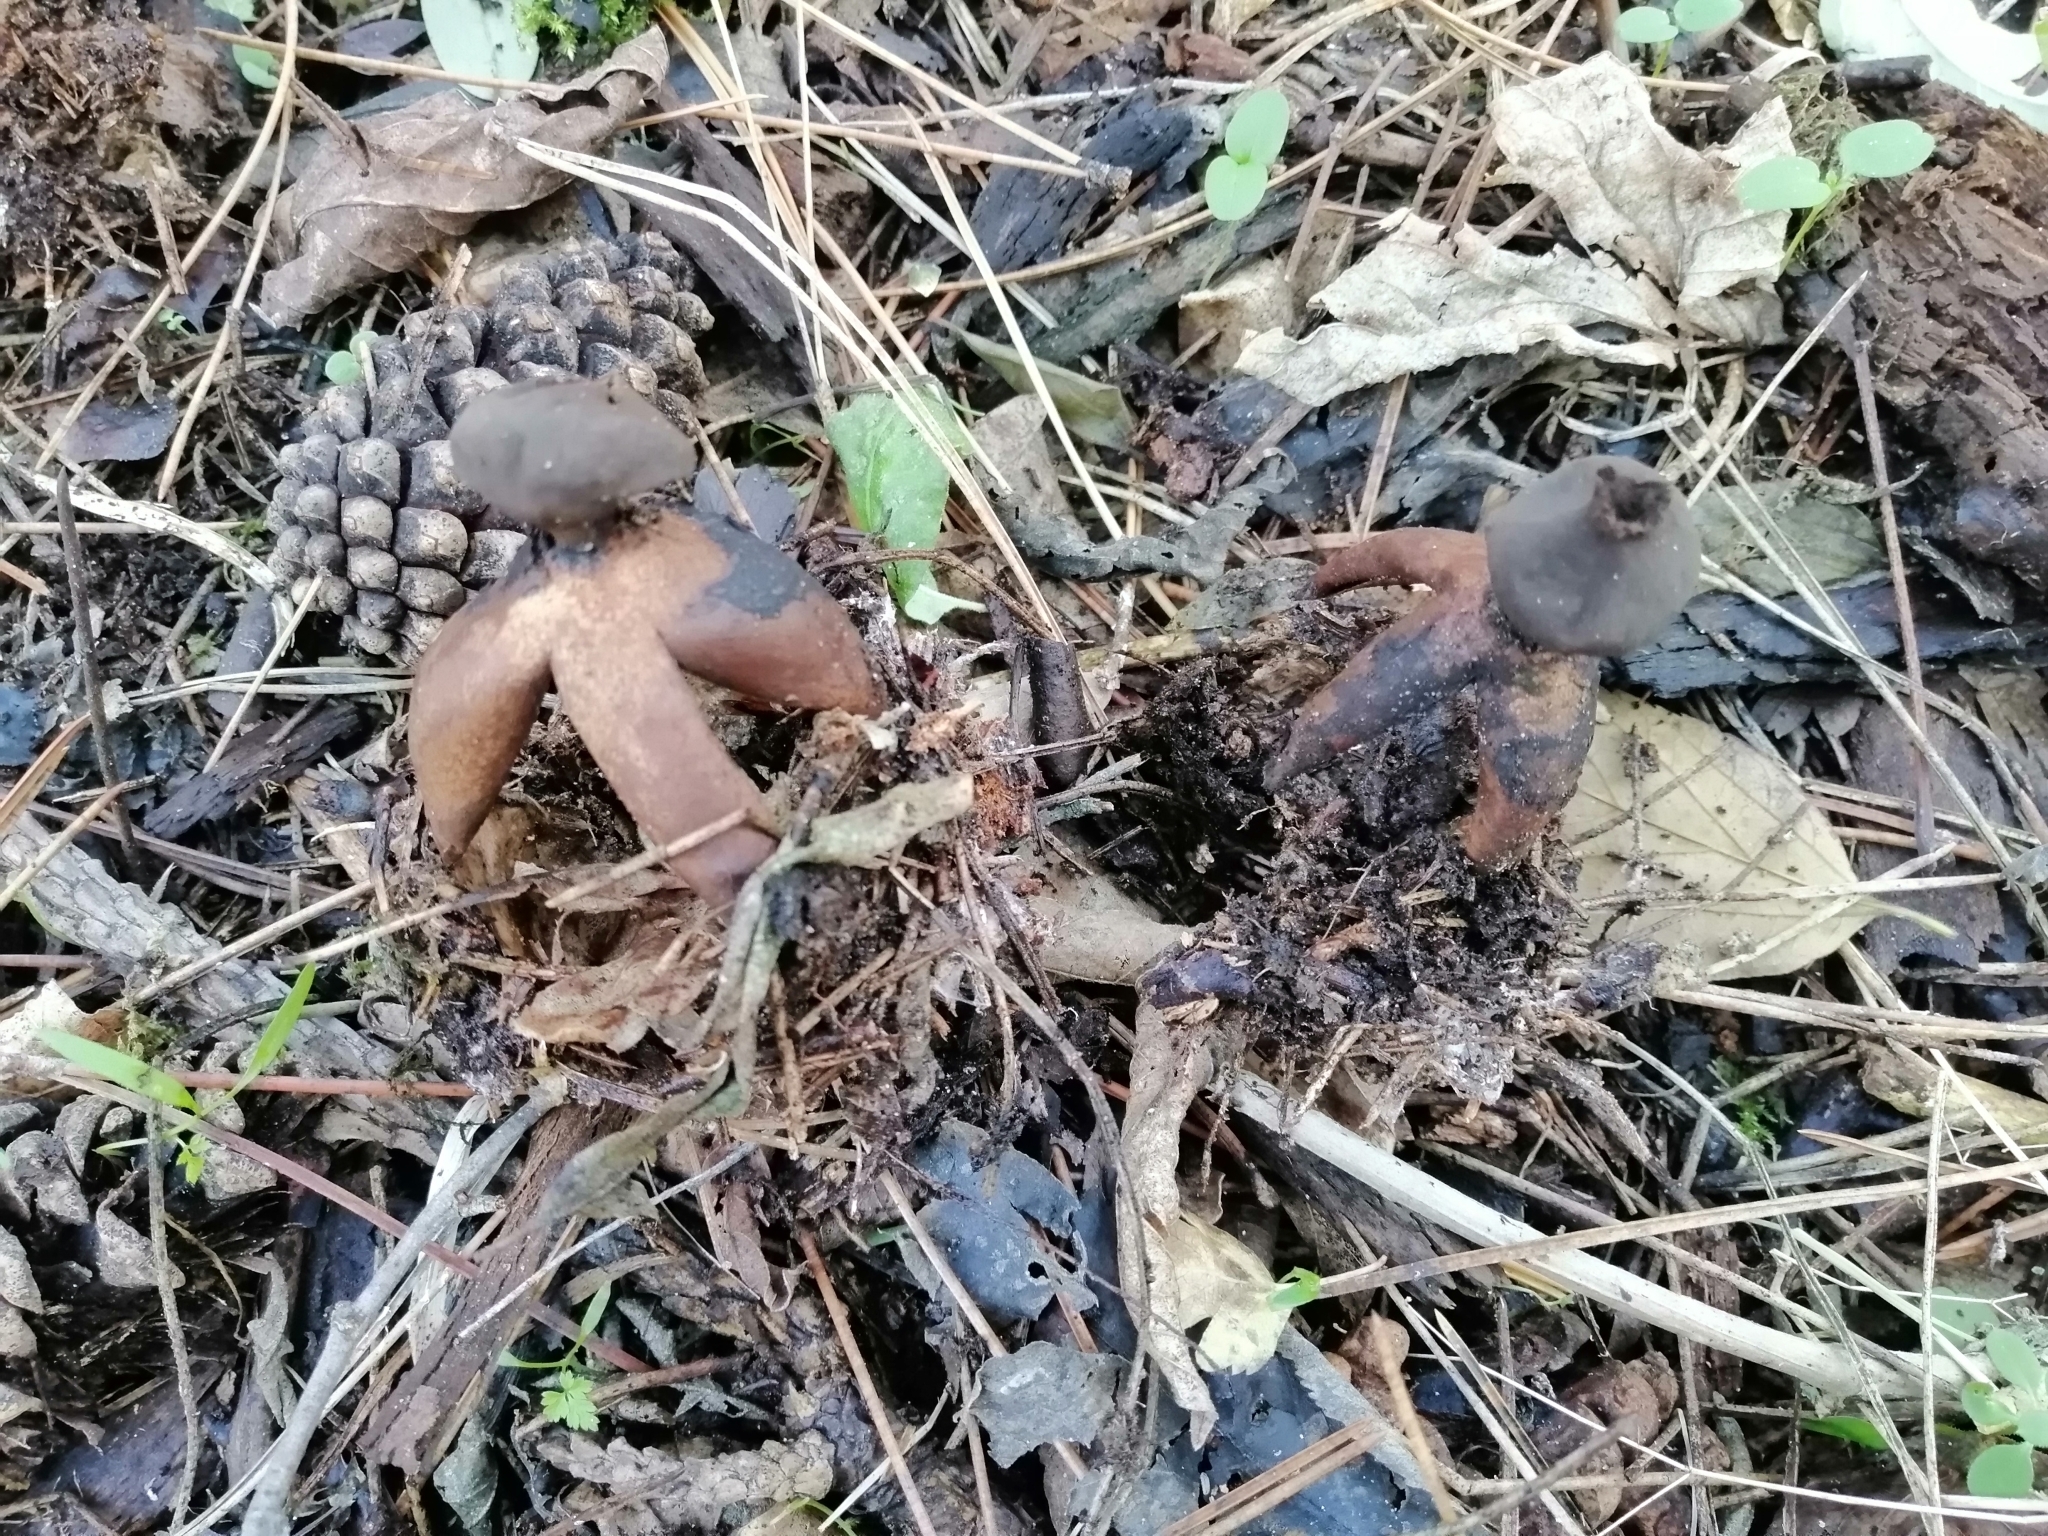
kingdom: Fungi
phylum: Basidiomycota
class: Agaricomycetes
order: Geastrales
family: Geastraceae
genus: Geastrum
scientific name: Geastrum fornicatum
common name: Arched earthstar
